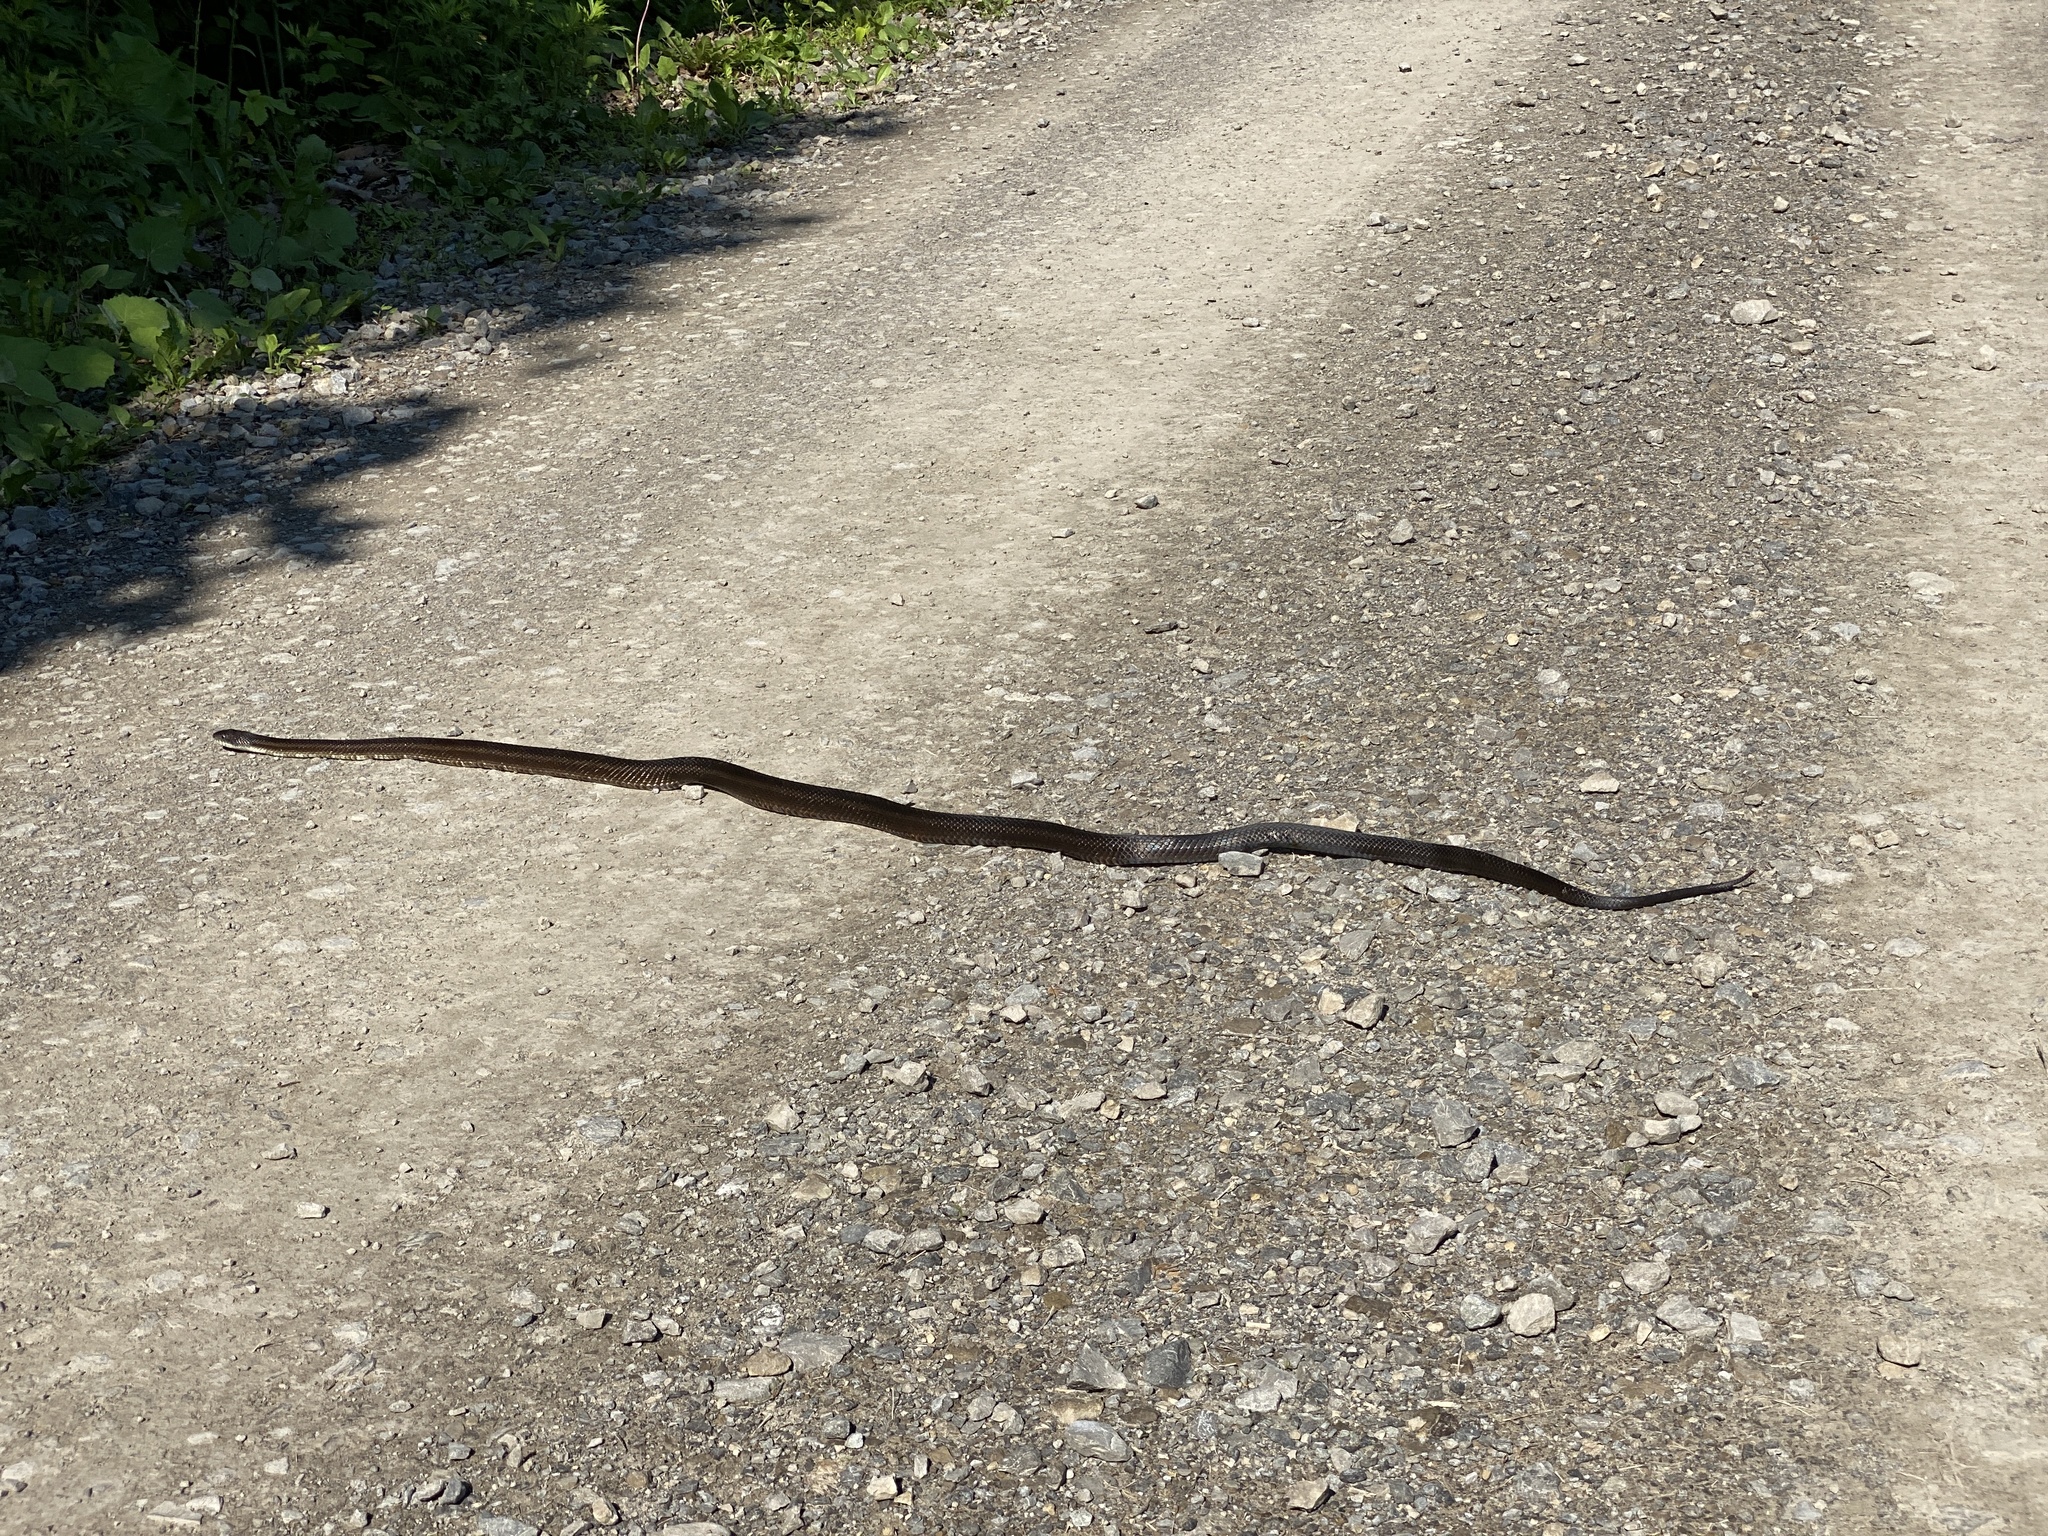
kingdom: Animalia
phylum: Chordata
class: Squamata
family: Colubridae
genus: Pantherophis
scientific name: Pantherophis spiloides
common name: Gray rat snake
